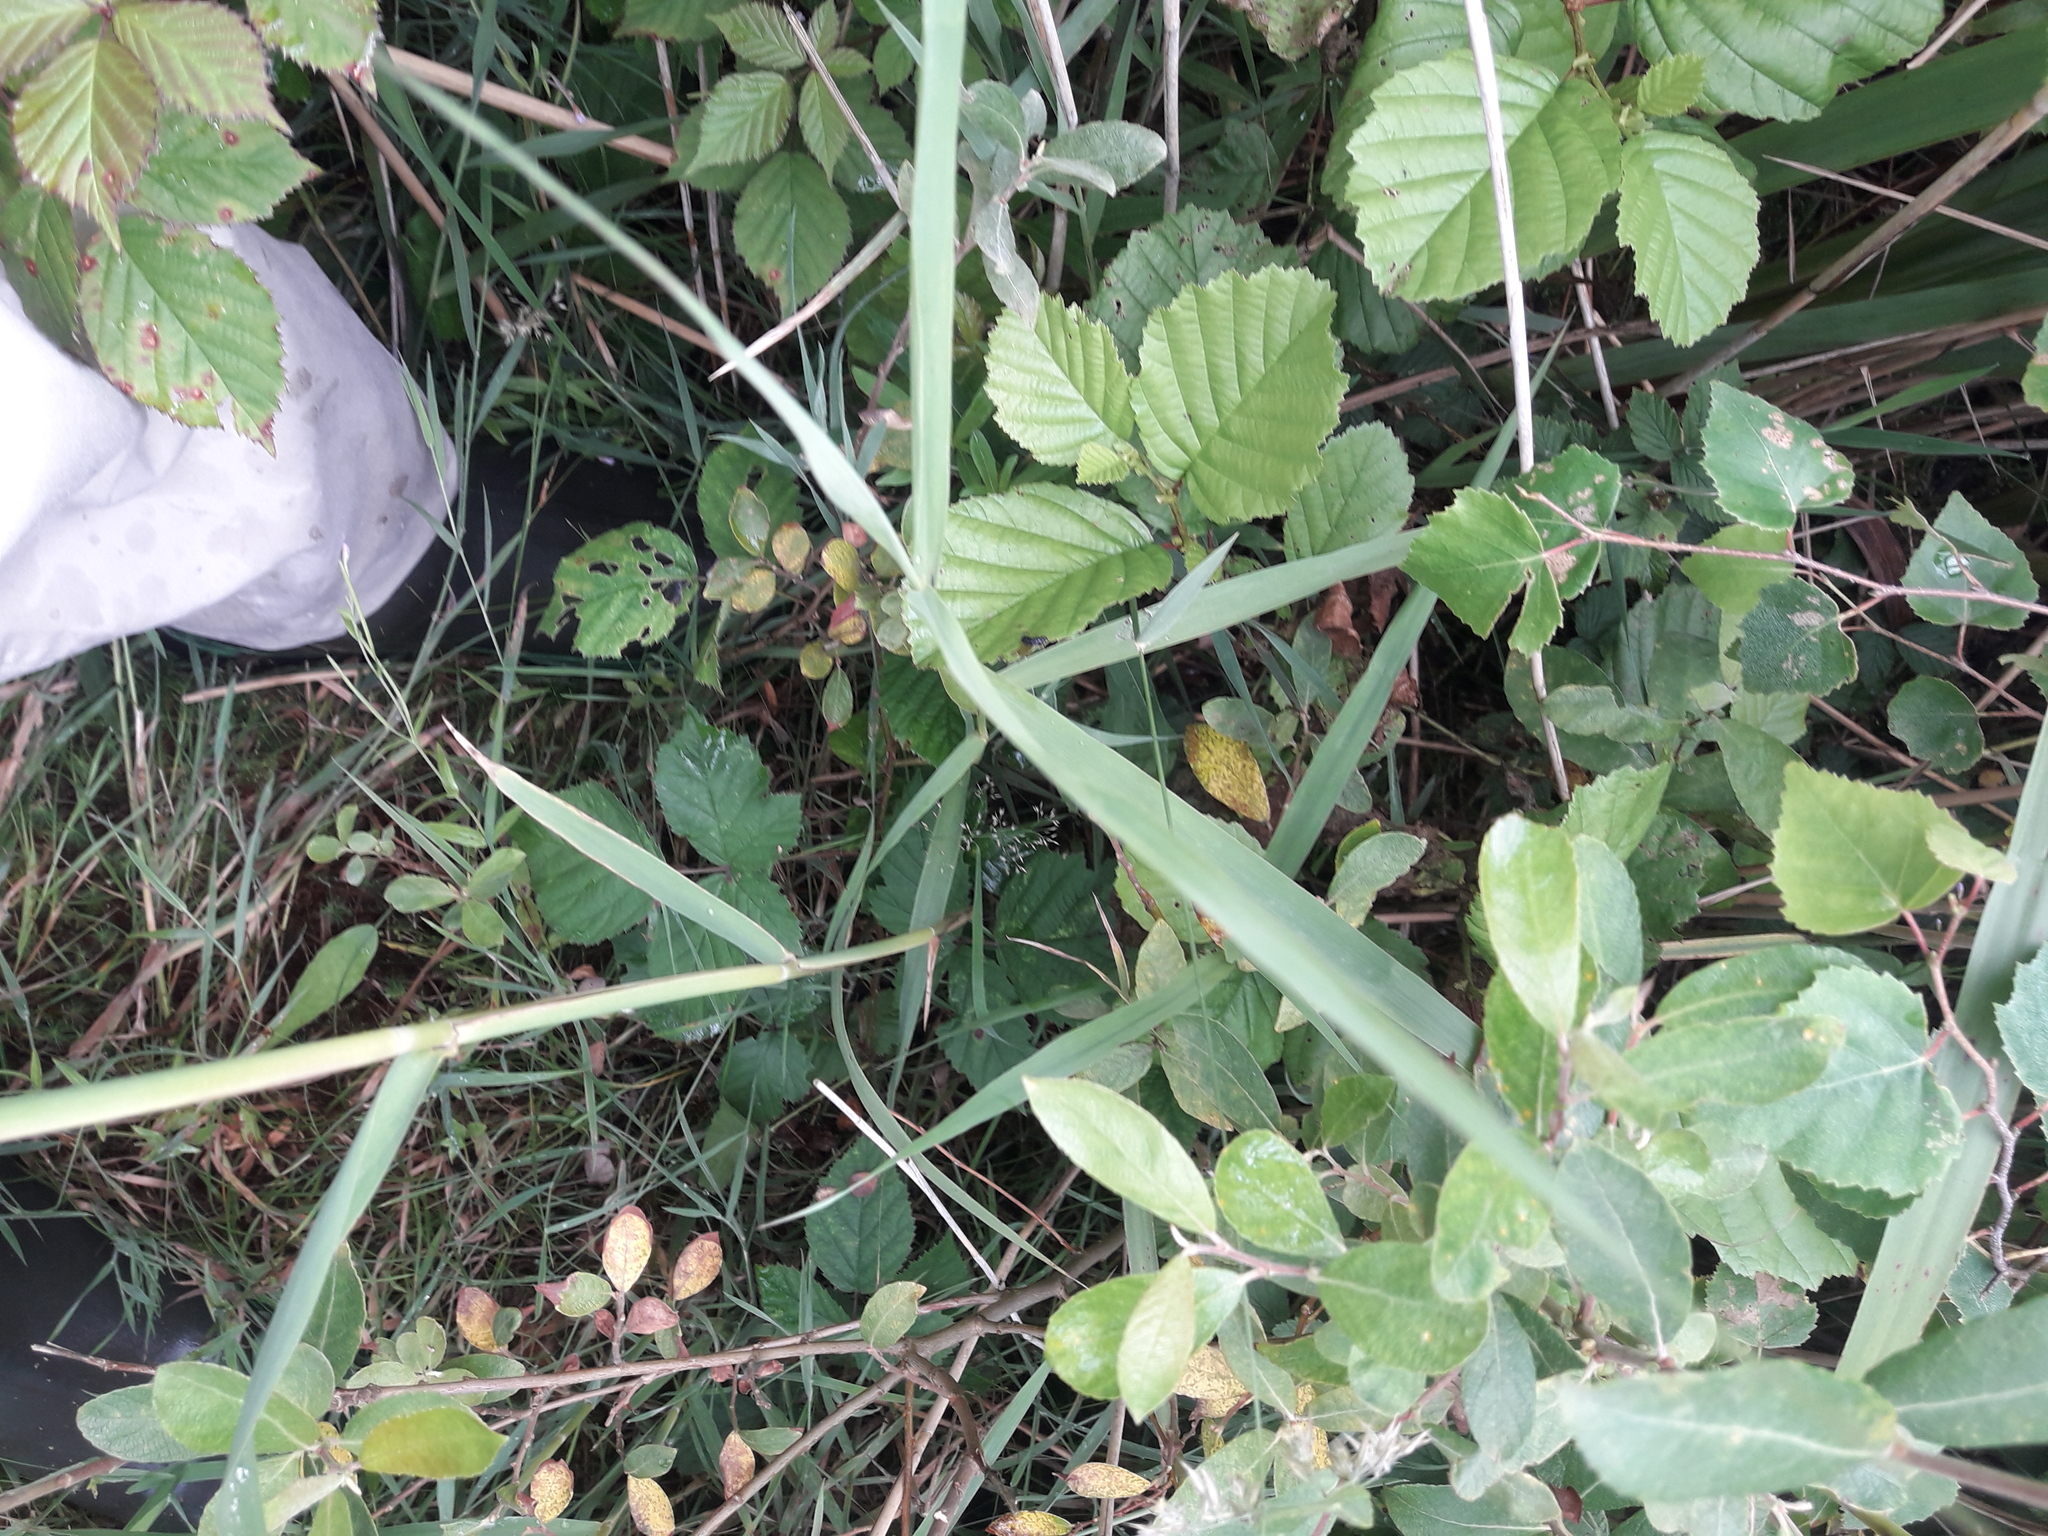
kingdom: Plantae
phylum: Tracheophyta
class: Magnoliopsida
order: Fagales
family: Betulaceae
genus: Alnus
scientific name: Alnus glutinosa
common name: Black alder
